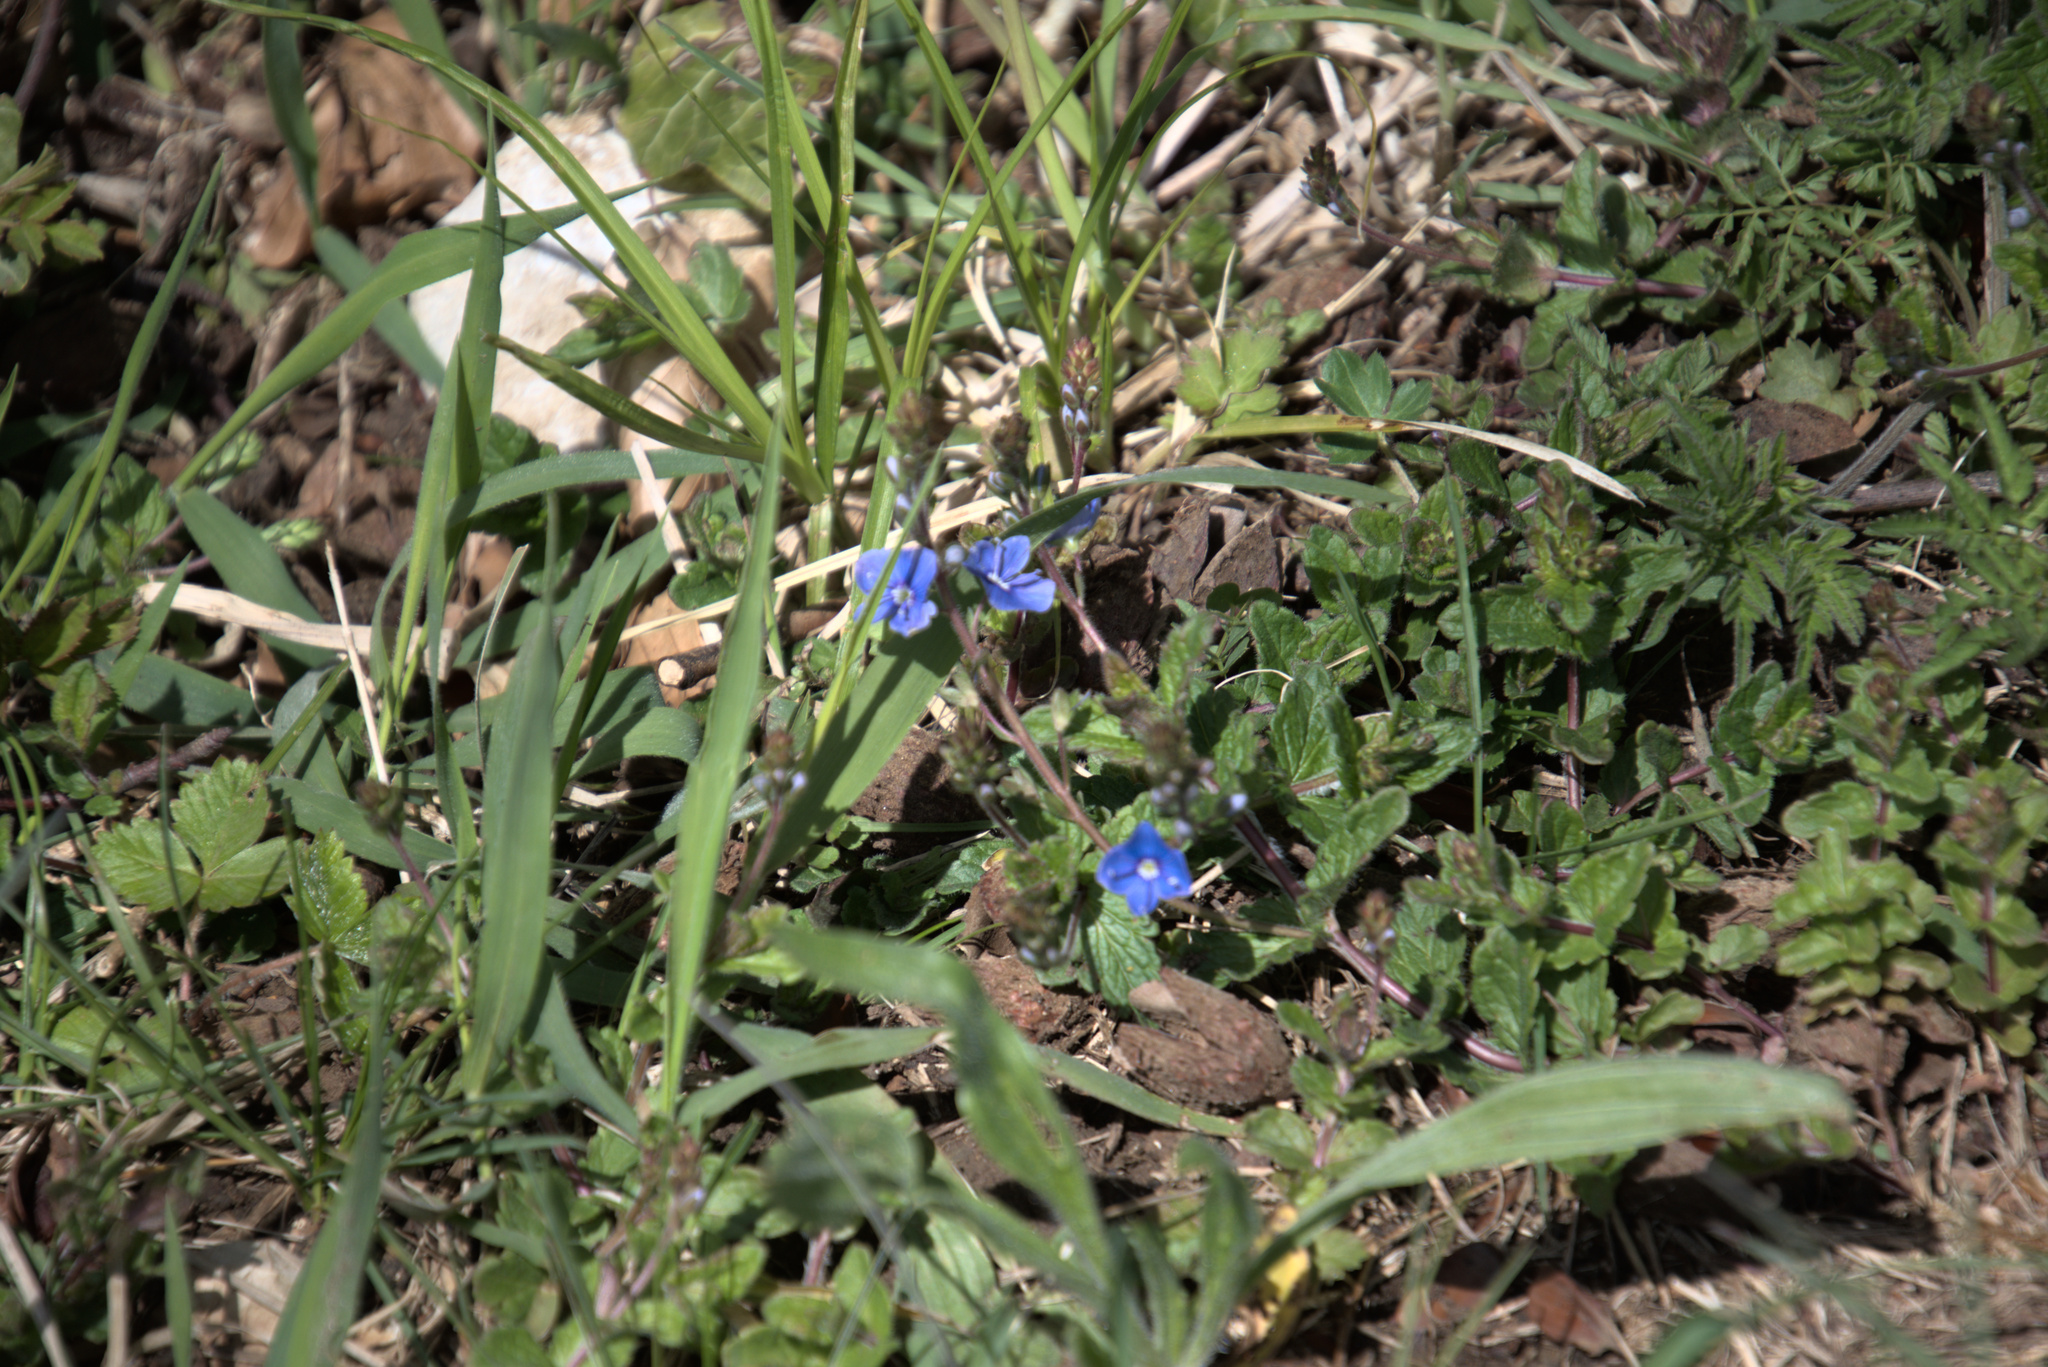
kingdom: Plantae
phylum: Tracheophyta
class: Magnoliopsida
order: Lamiales
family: Plantaginaceae
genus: Veronica
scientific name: Veronica chamaedrys
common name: Germander speedwell
